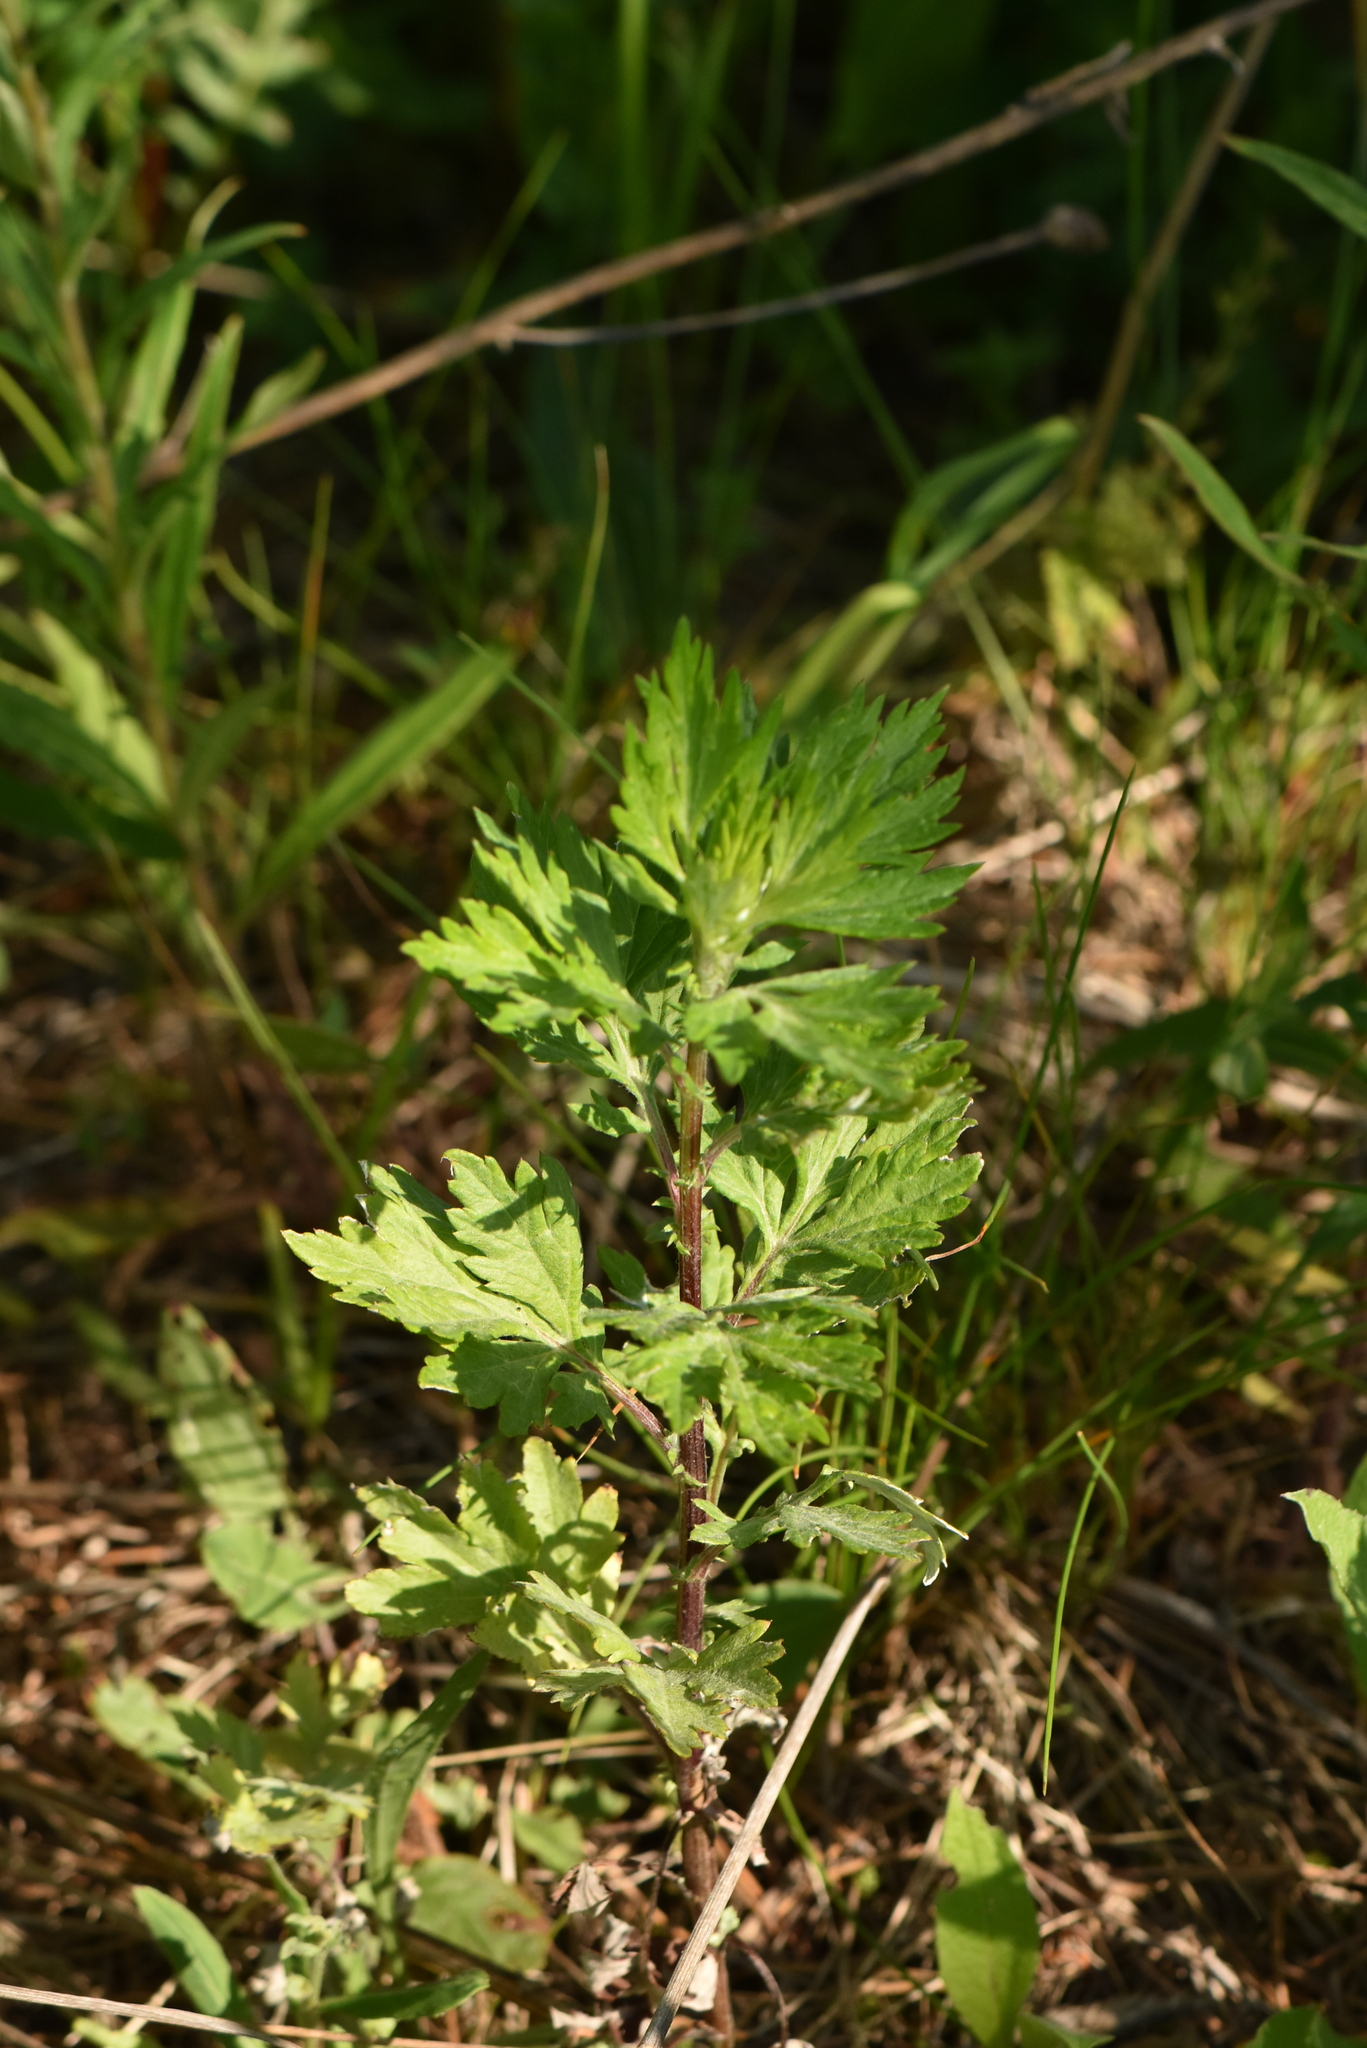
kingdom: Plantae
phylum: Tracheophyta
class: Magnoliopsida
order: Asterales
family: Asteraceae
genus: Artemisia
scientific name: Artemisia vulgaris
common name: Mugwort
